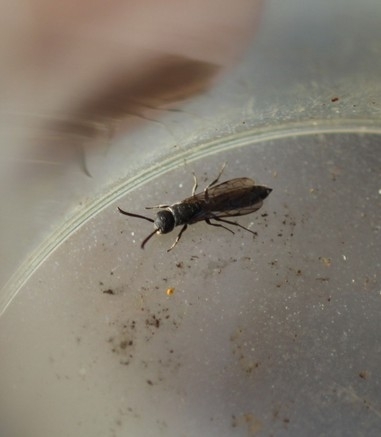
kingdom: Animalia
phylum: Arthropoda
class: Insecta
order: Hymenoptera
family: Sapygidae
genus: Sapygina
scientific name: Sapygina decemguttata
